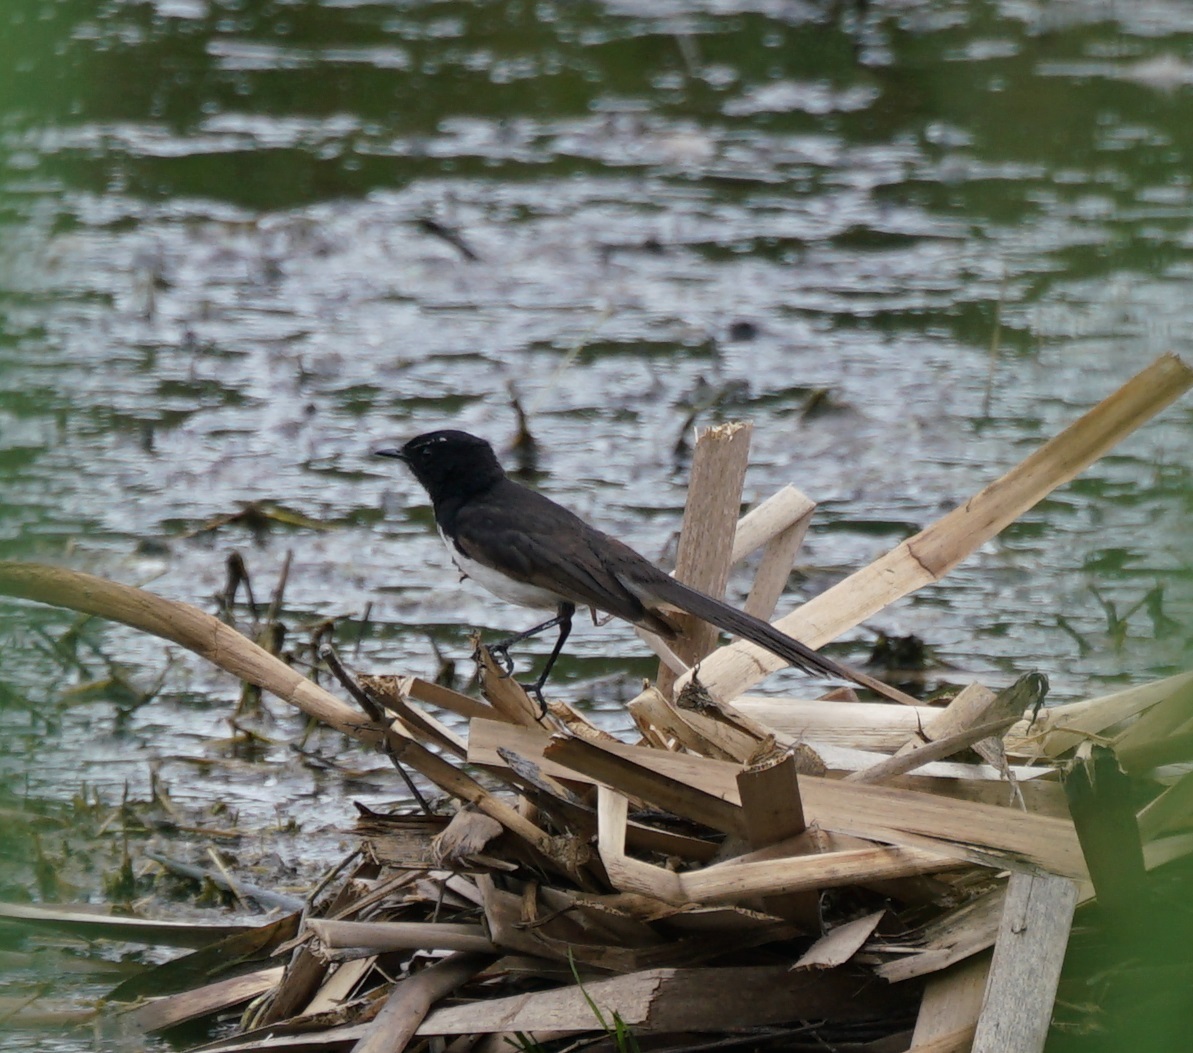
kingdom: Animalia
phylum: Chordata
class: Aves
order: Passeriformes
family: Rhipiduridae
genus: Rhipidura
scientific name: Rhipidura leucophrys
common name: Willie wagtail
